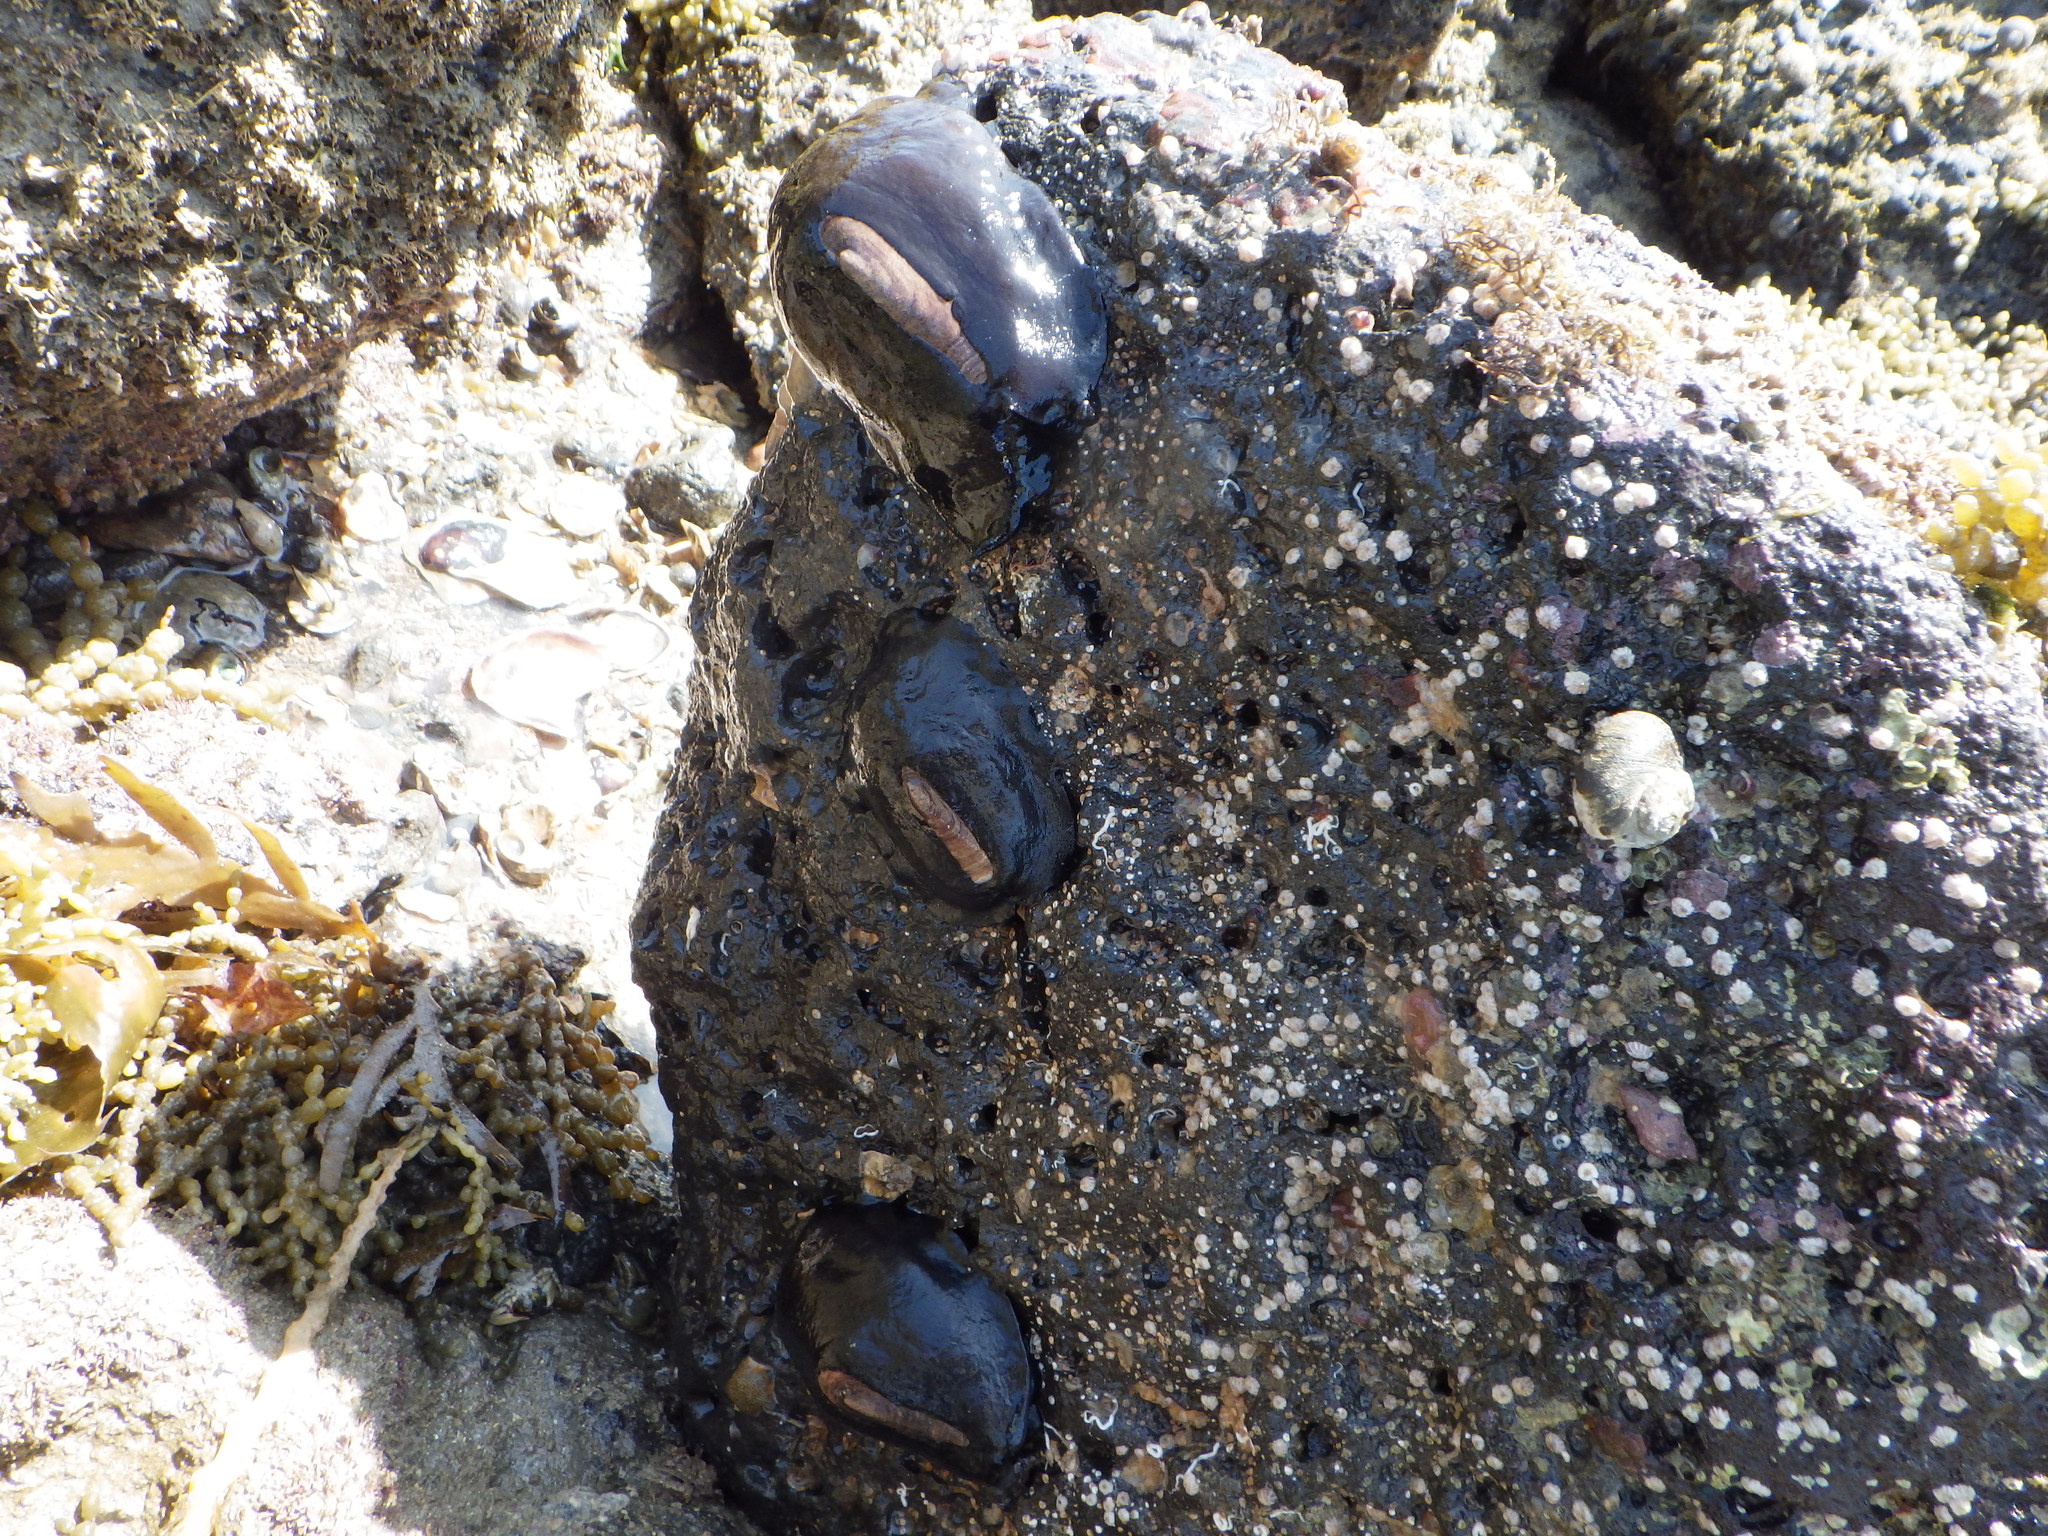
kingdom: Animalia
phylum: Mollusca
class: Gastropoda
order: Lepetellida
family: Fissurellidae
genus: Scutus
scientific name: Scutus breviculus
